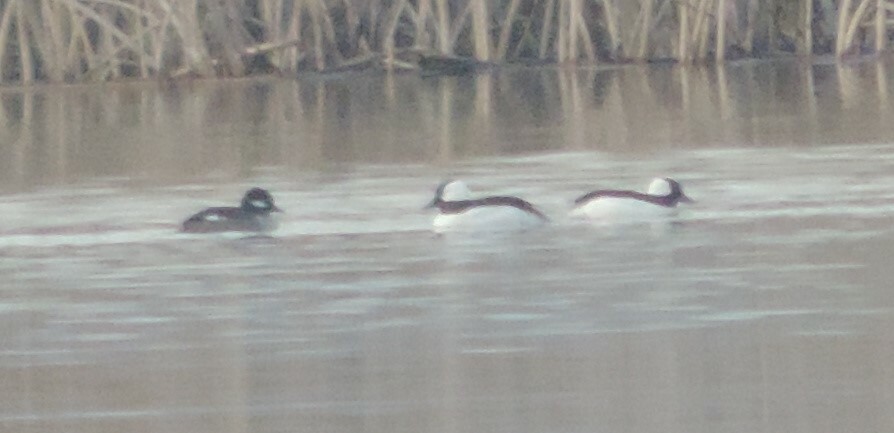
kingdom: Animalia
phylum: Chordata
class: Aves
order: Anseriformes
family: Anatidae
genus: Bucephala
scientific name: Bucephala albeola
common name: Bufflehead
